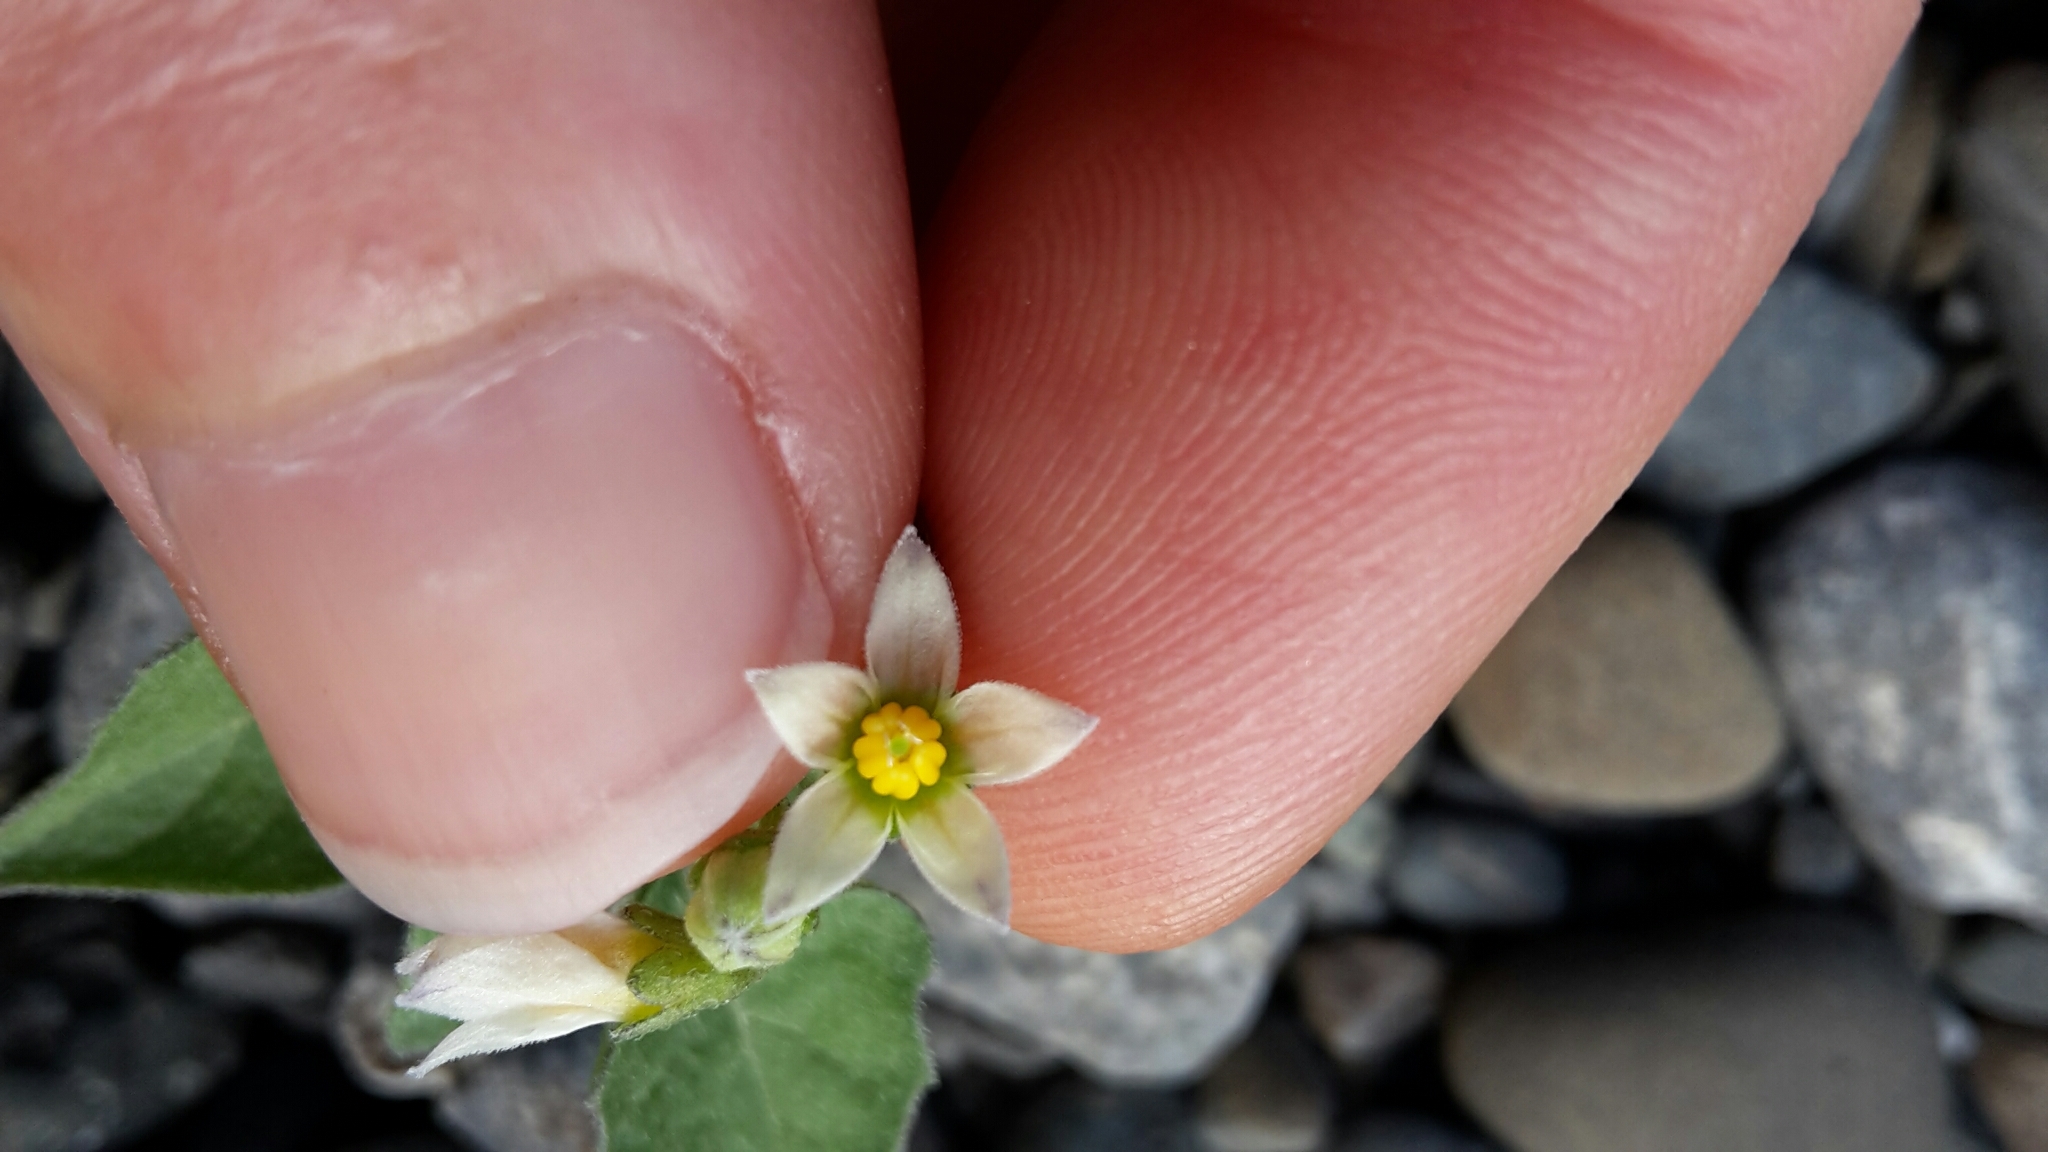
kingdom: Plantae
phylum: Tracheophyta
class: Magnoliopsida
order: Solanales
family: Solanaceae
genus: Solanum
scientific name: Solanum
